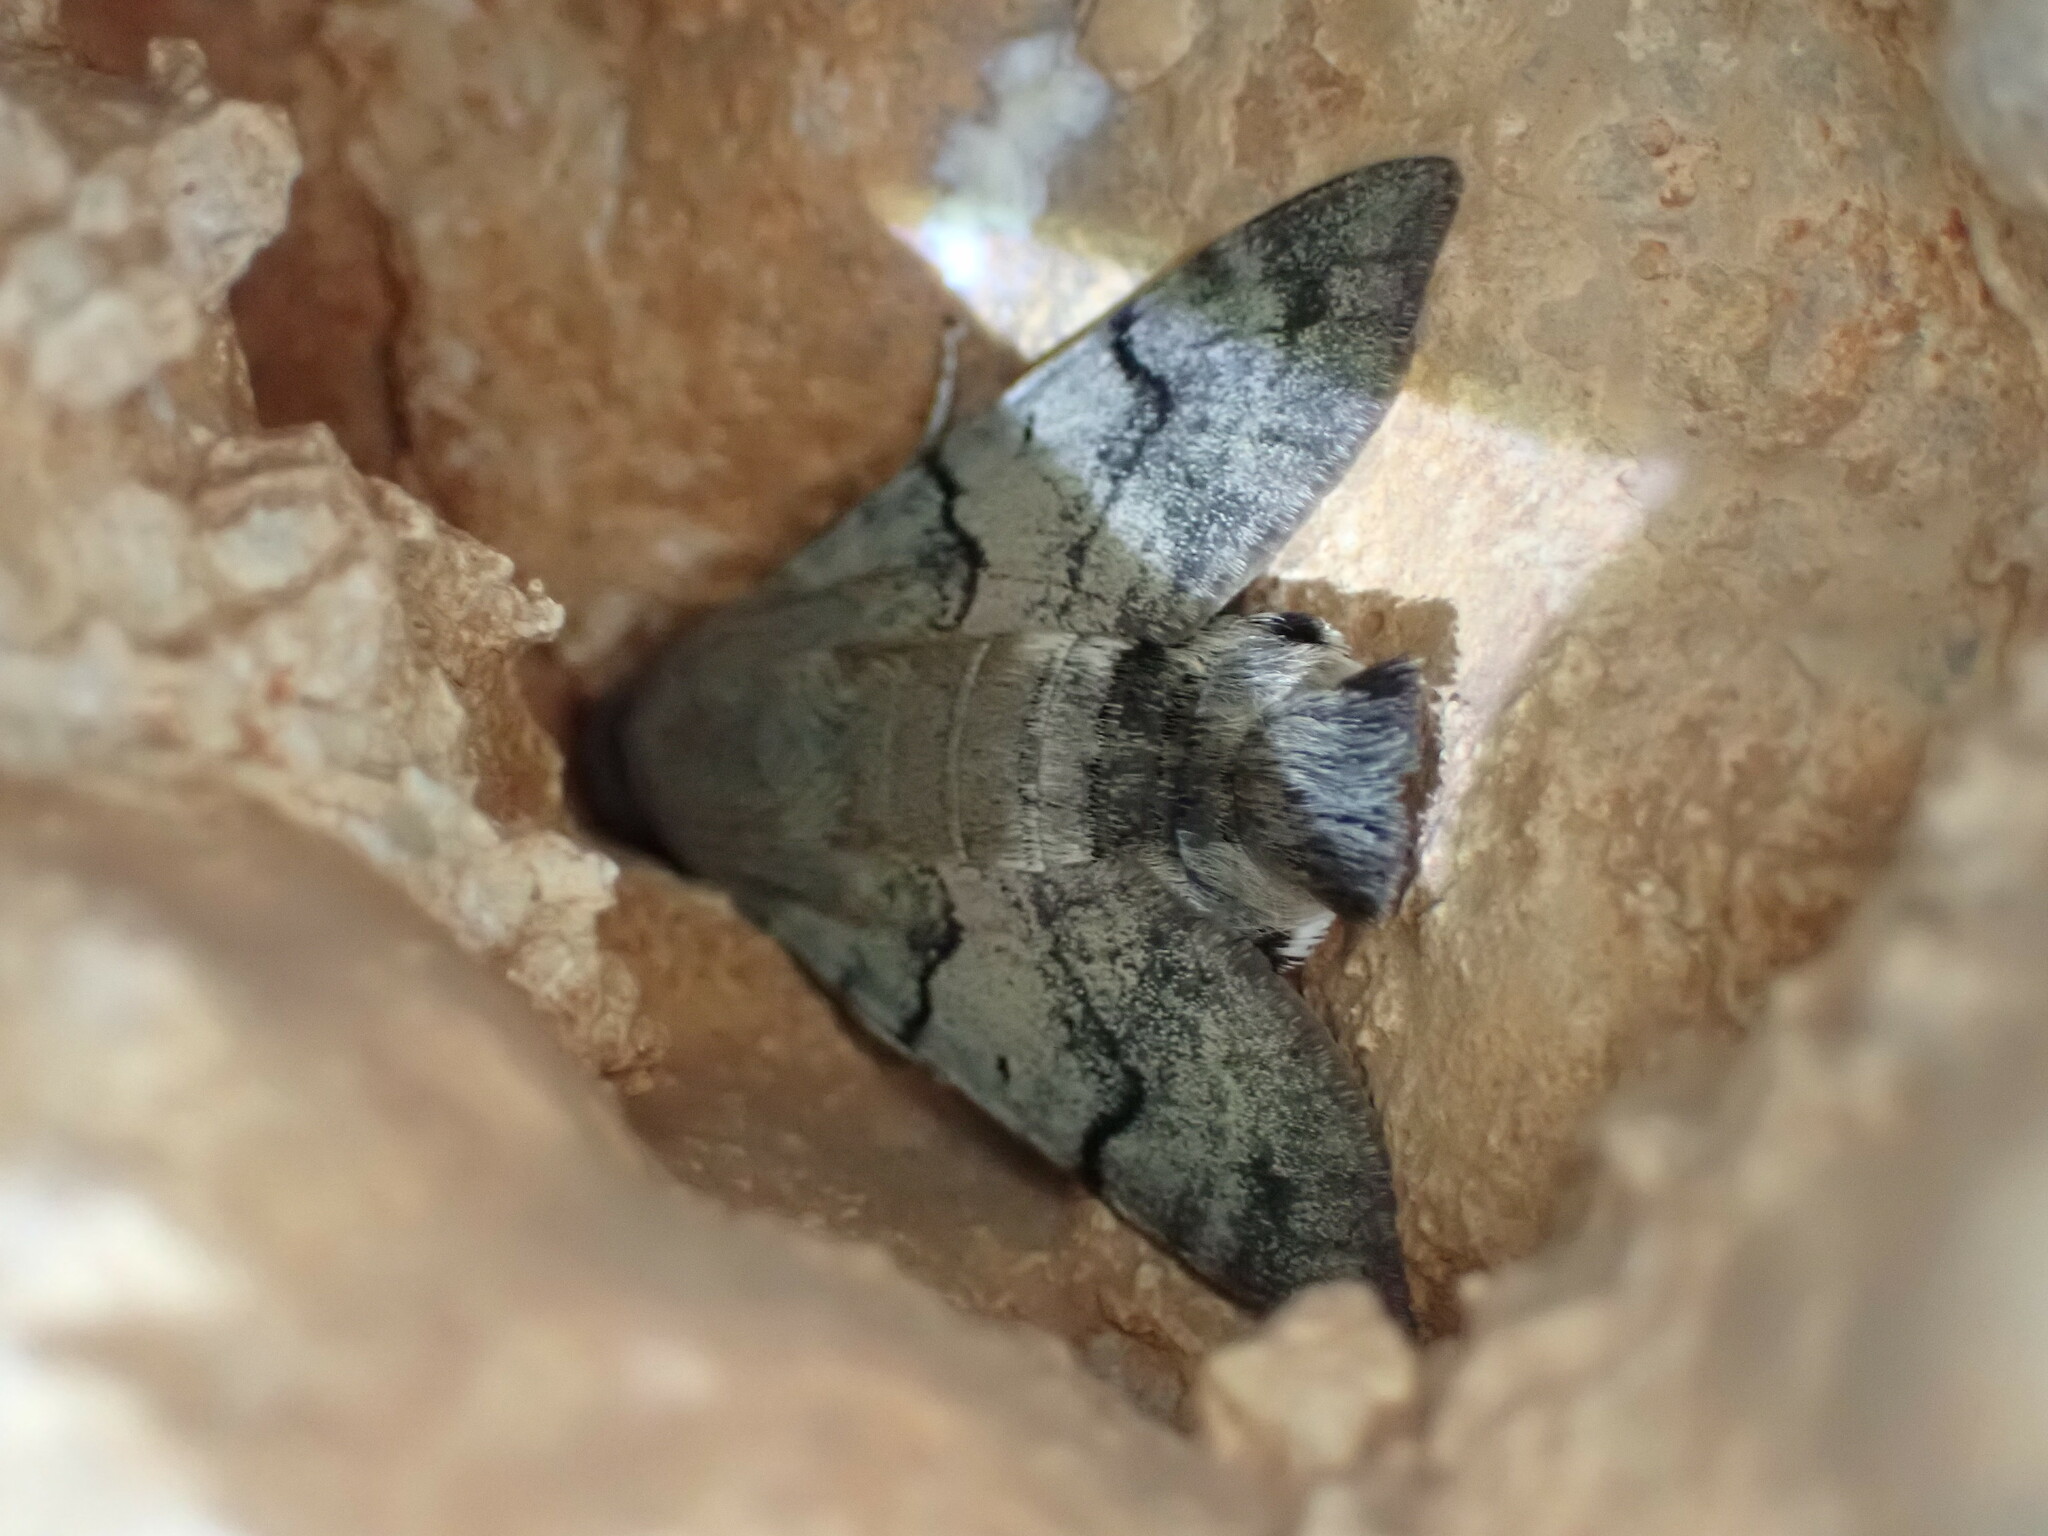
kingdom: Animalia
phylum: Arthropoda
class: Insecta
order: Lepidoptera
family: Sphingidae
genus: Macroglossum
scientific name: Macroglossum stellatarum
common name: Humming-bird hawk-moth
